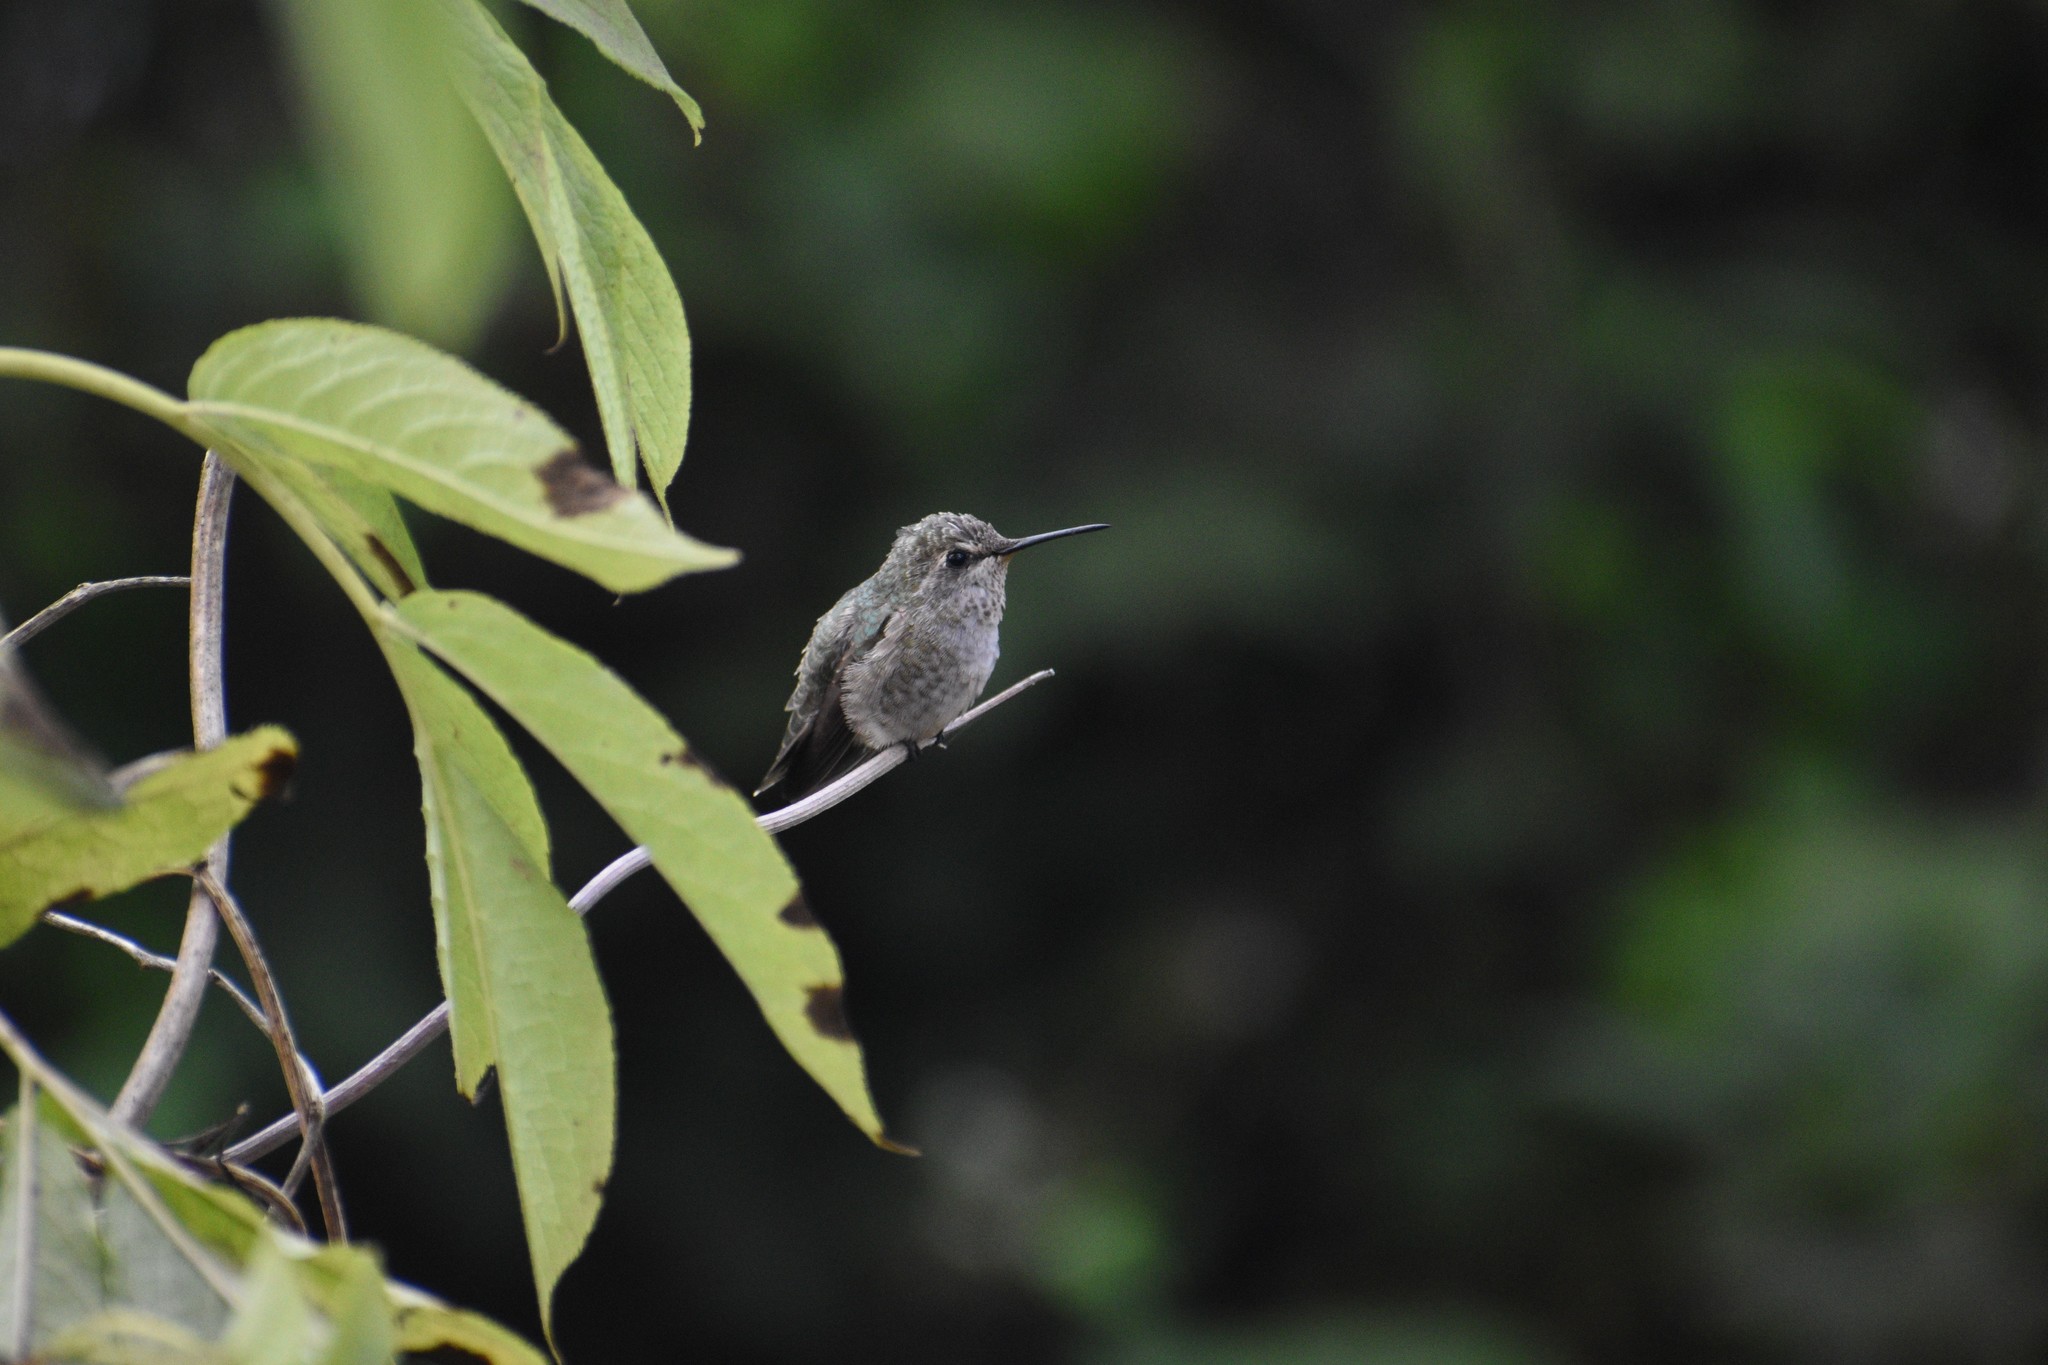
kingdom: Animalia
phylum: Chordata
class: Aves
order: Apodiformes
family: Trochilidae
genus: Calypte
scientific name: Calypte anna
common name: Anna's hummingbird
